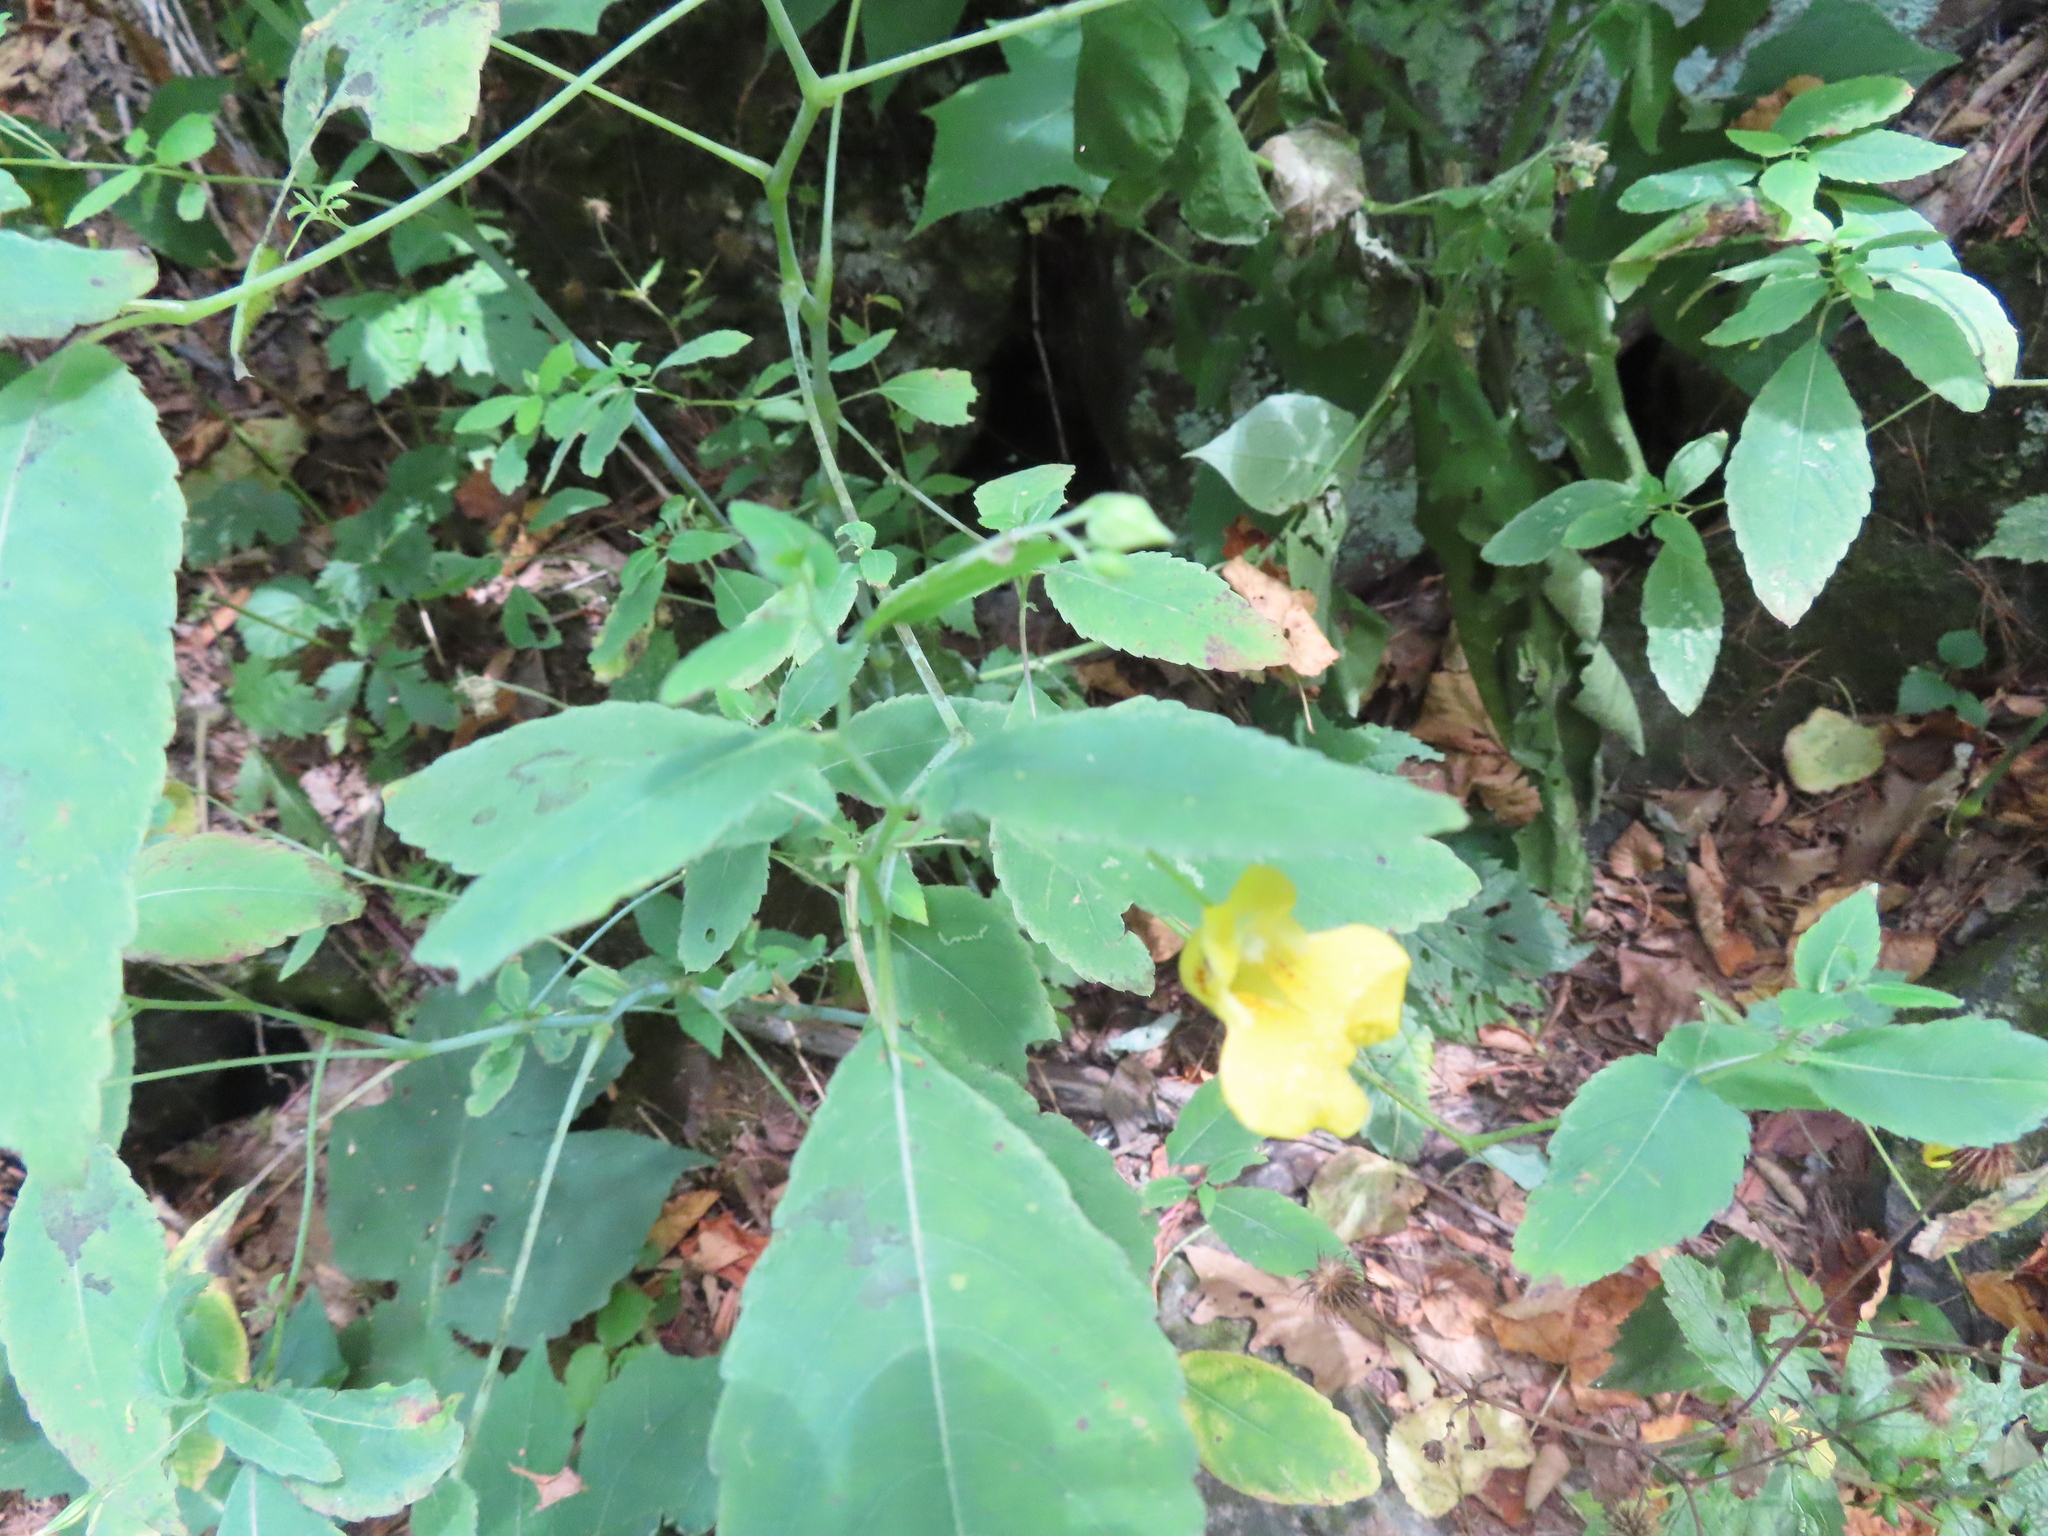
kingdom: Plantae
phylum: Tracheophyta
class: Magnoliopsida
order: Ericales
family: Balsaminaceae
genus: Impatiens
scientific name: Impatiens pallida
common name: Pale snapweed
